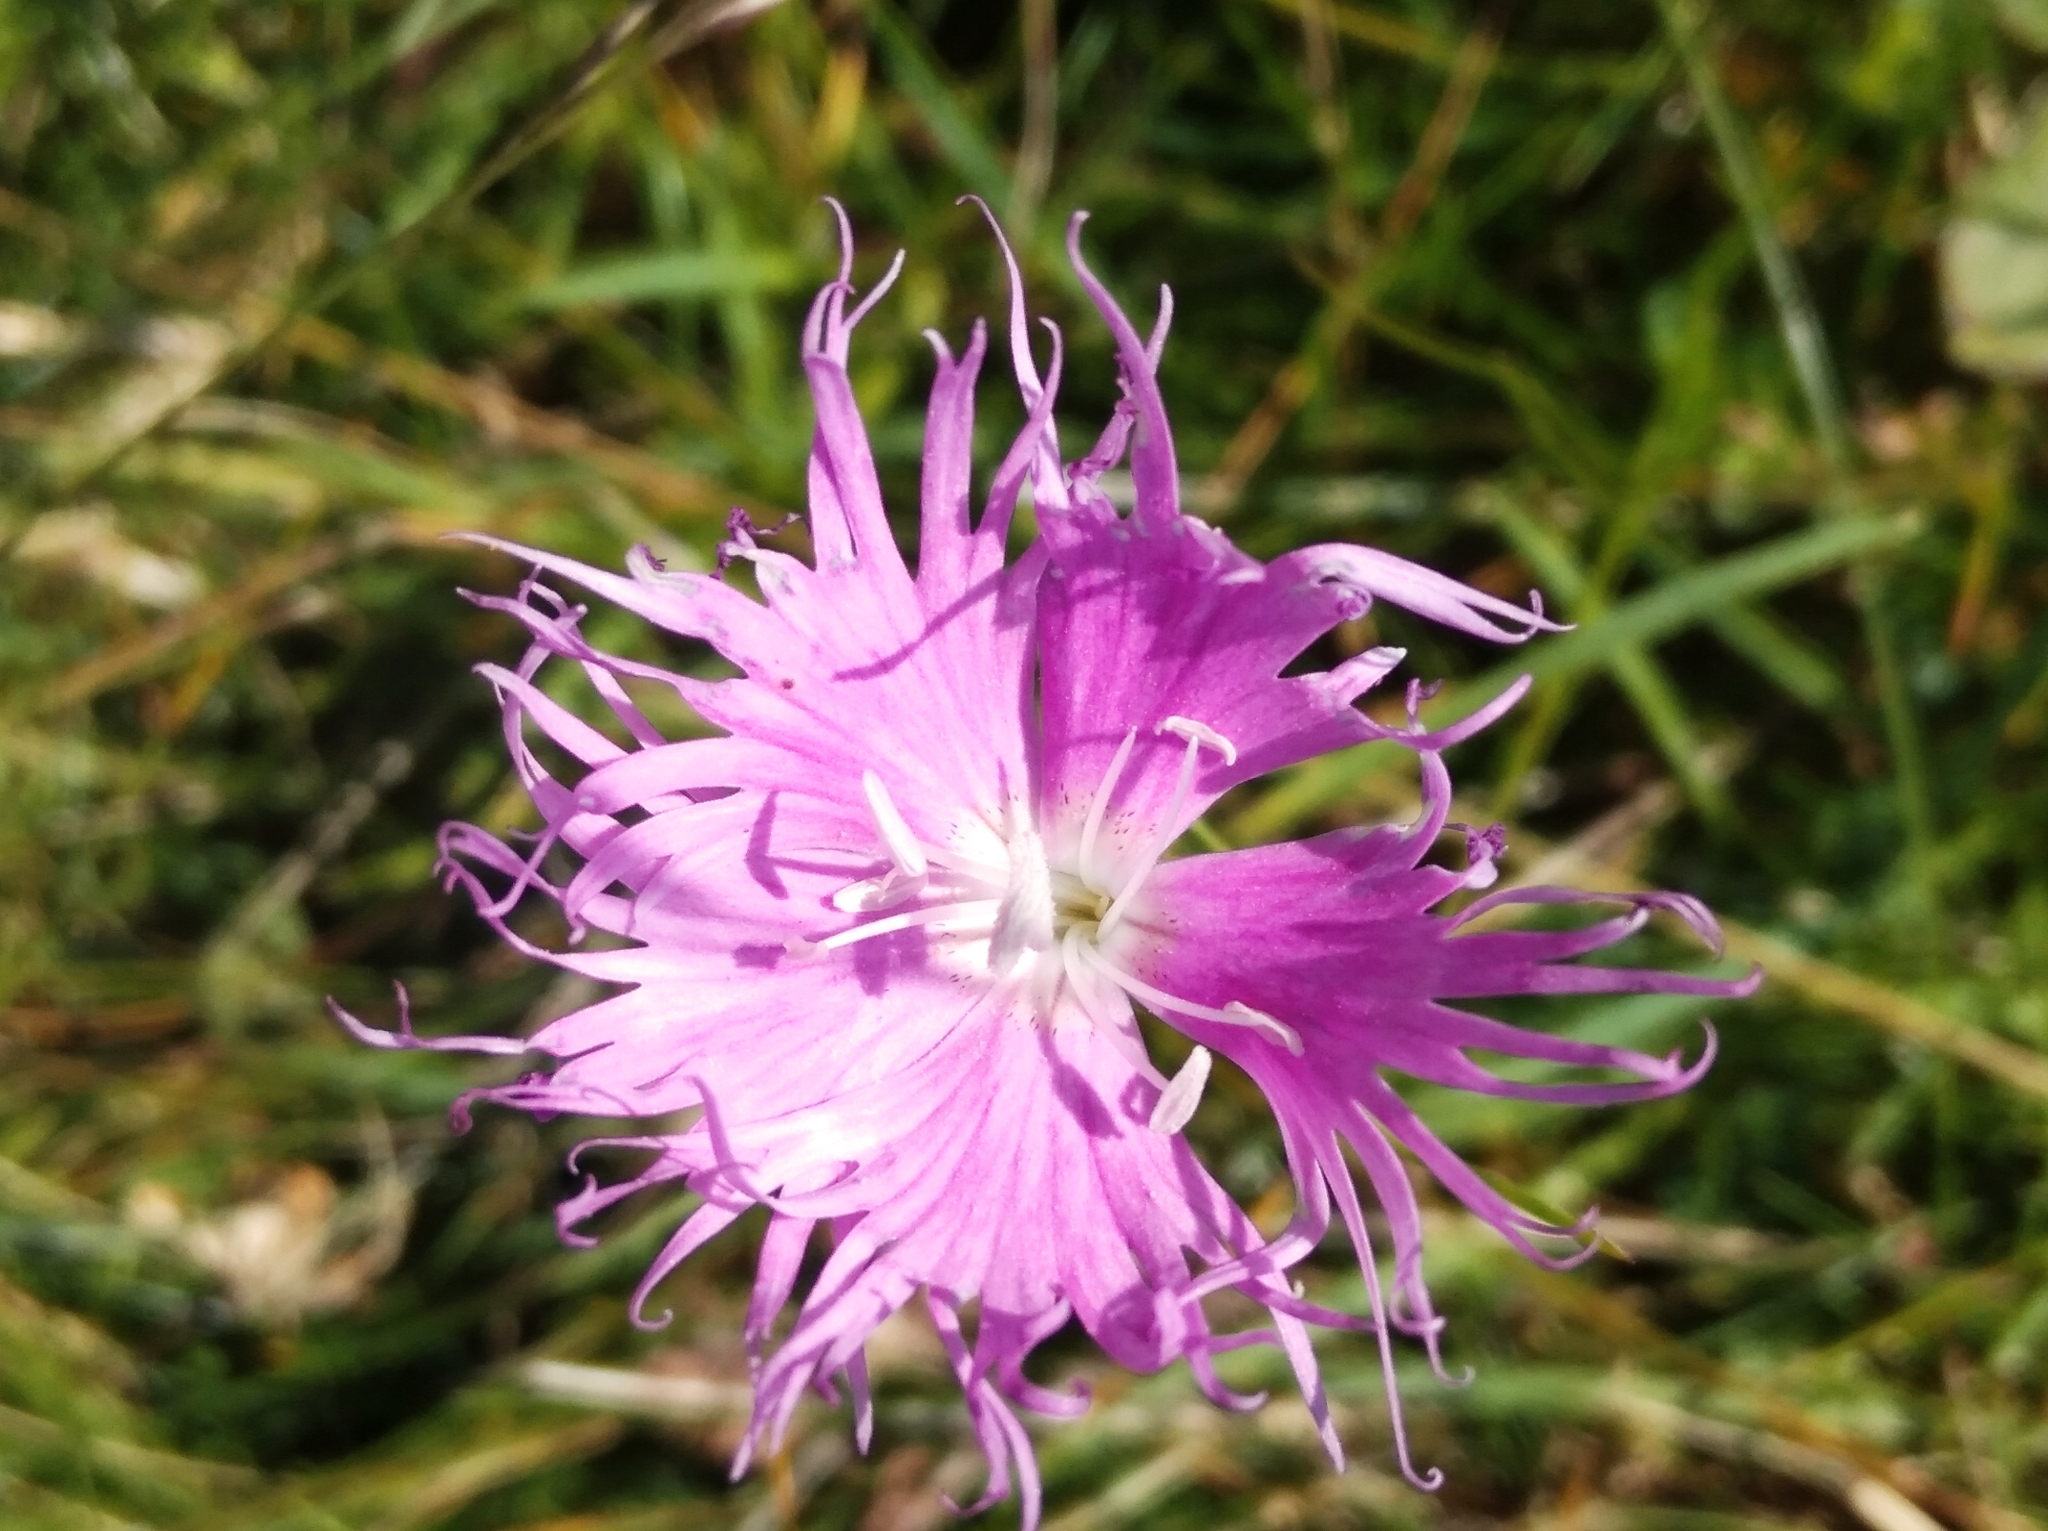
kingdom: Plantae
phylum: Tracheophyta
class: Magnoliopsida
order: Caryophyllales
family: Caryophyllaceae
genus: Dianthus
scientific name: Dianthus hyssopifolius
